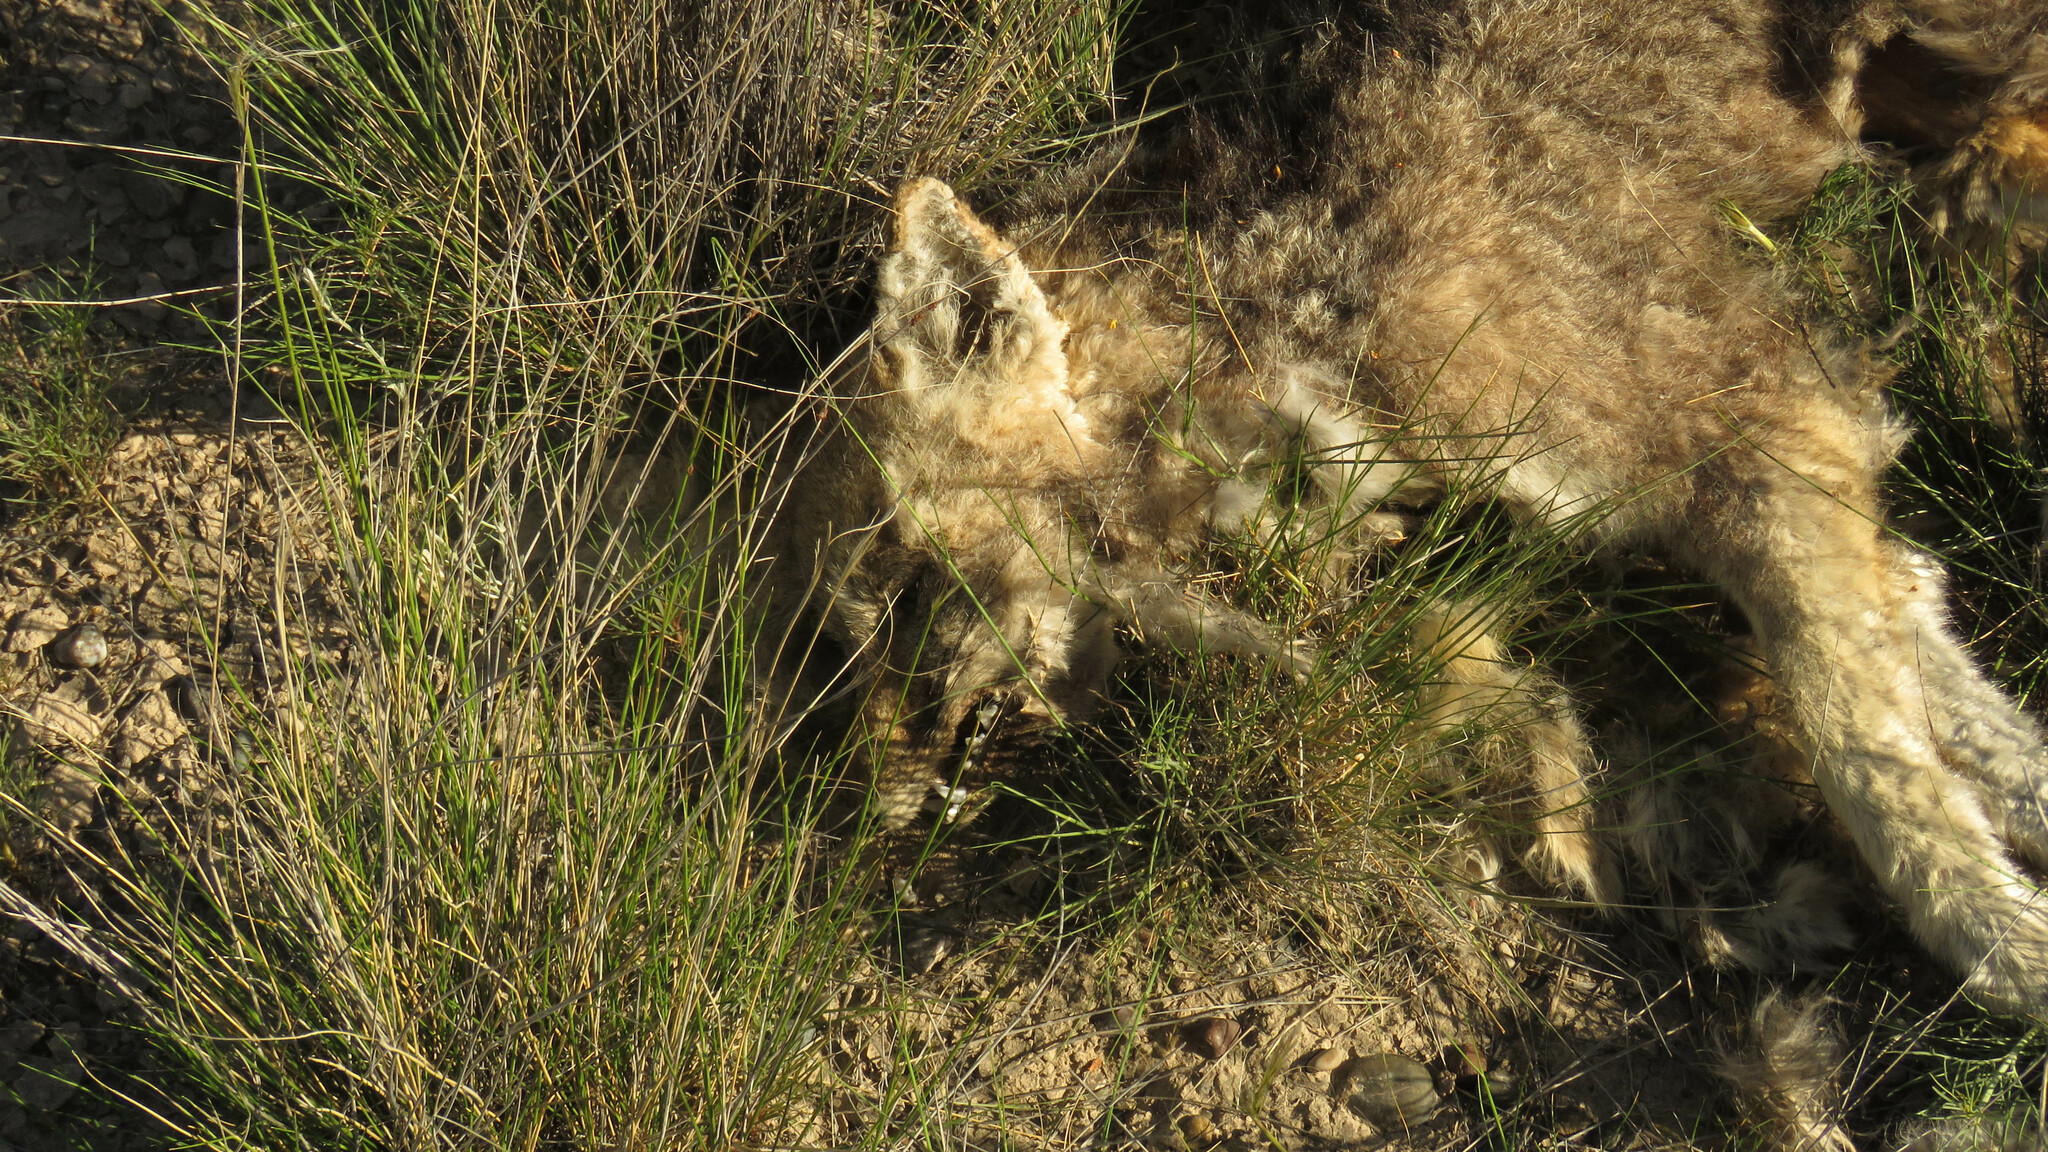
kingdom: Animalia
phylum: Chordata
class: Mammalia
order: Carnivora
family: Canidae
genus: Lycalopex
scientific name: Lycalopex gymnocercus
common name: Pampas fox
